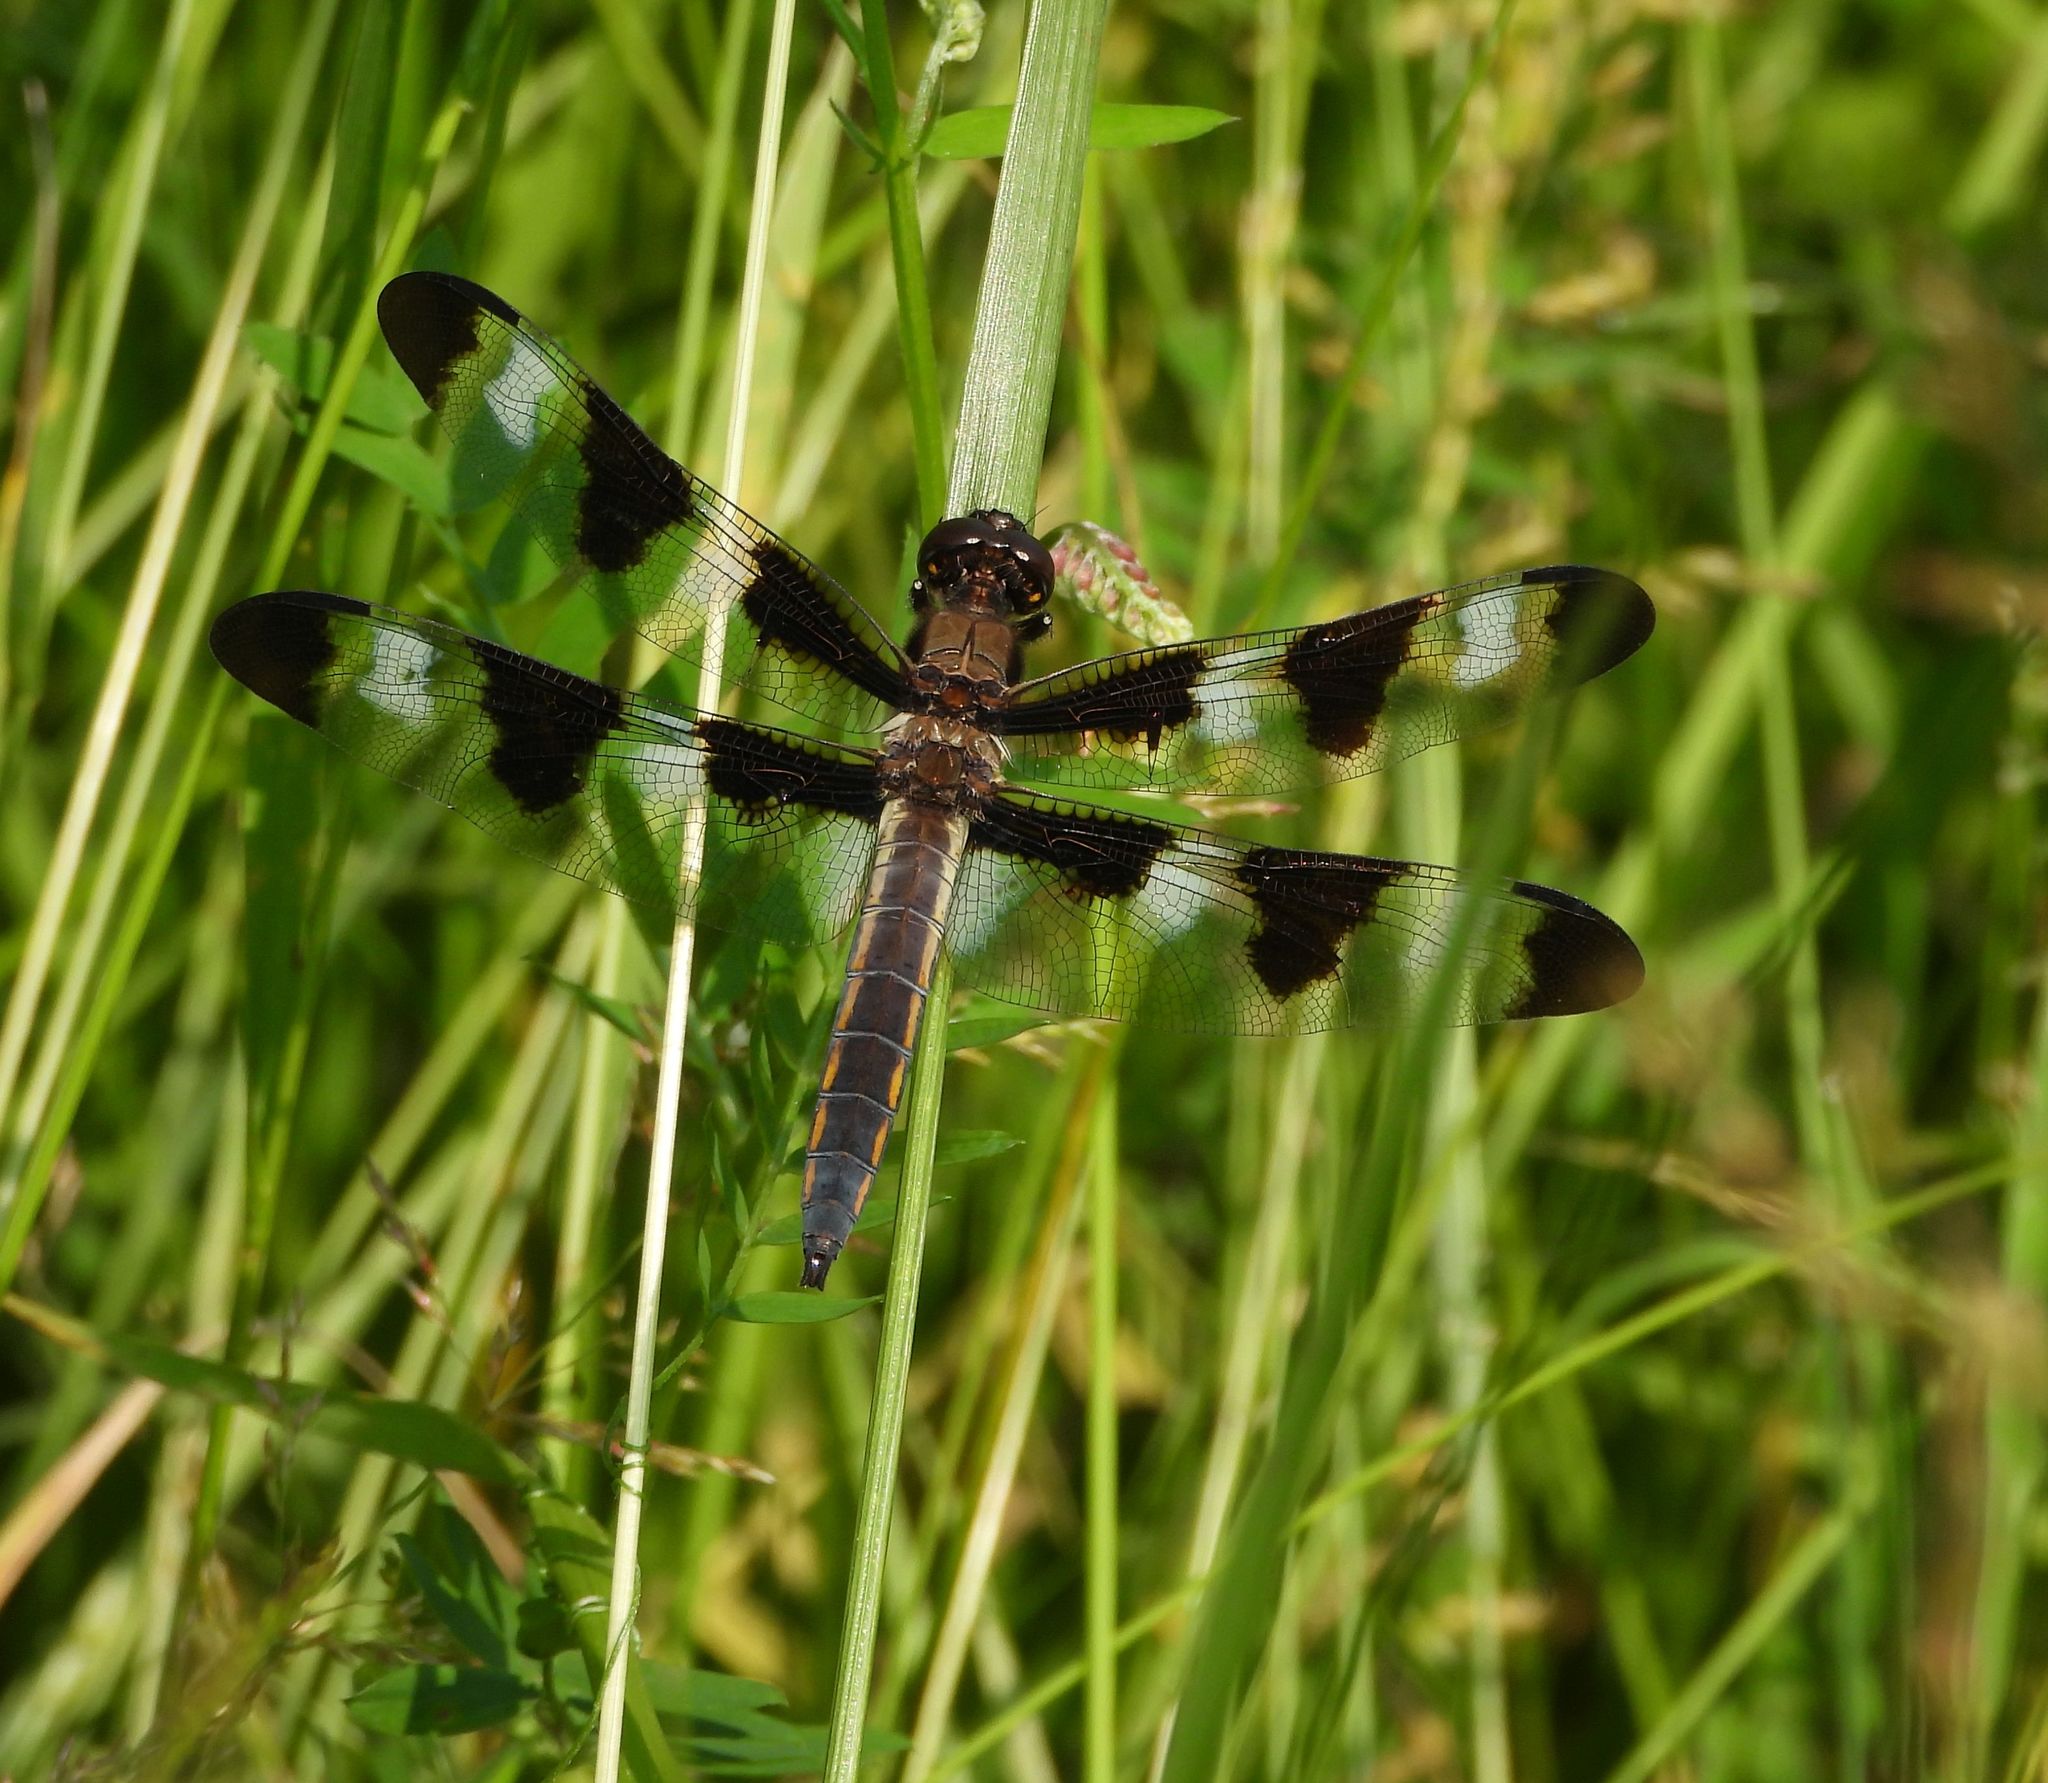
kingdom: Animalia
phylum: Arthropoda
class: Insecta
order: Odonata
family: Libellulidae
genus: Libellula
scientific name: Libellula pulchella
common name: Twelve-spotted skimmer
